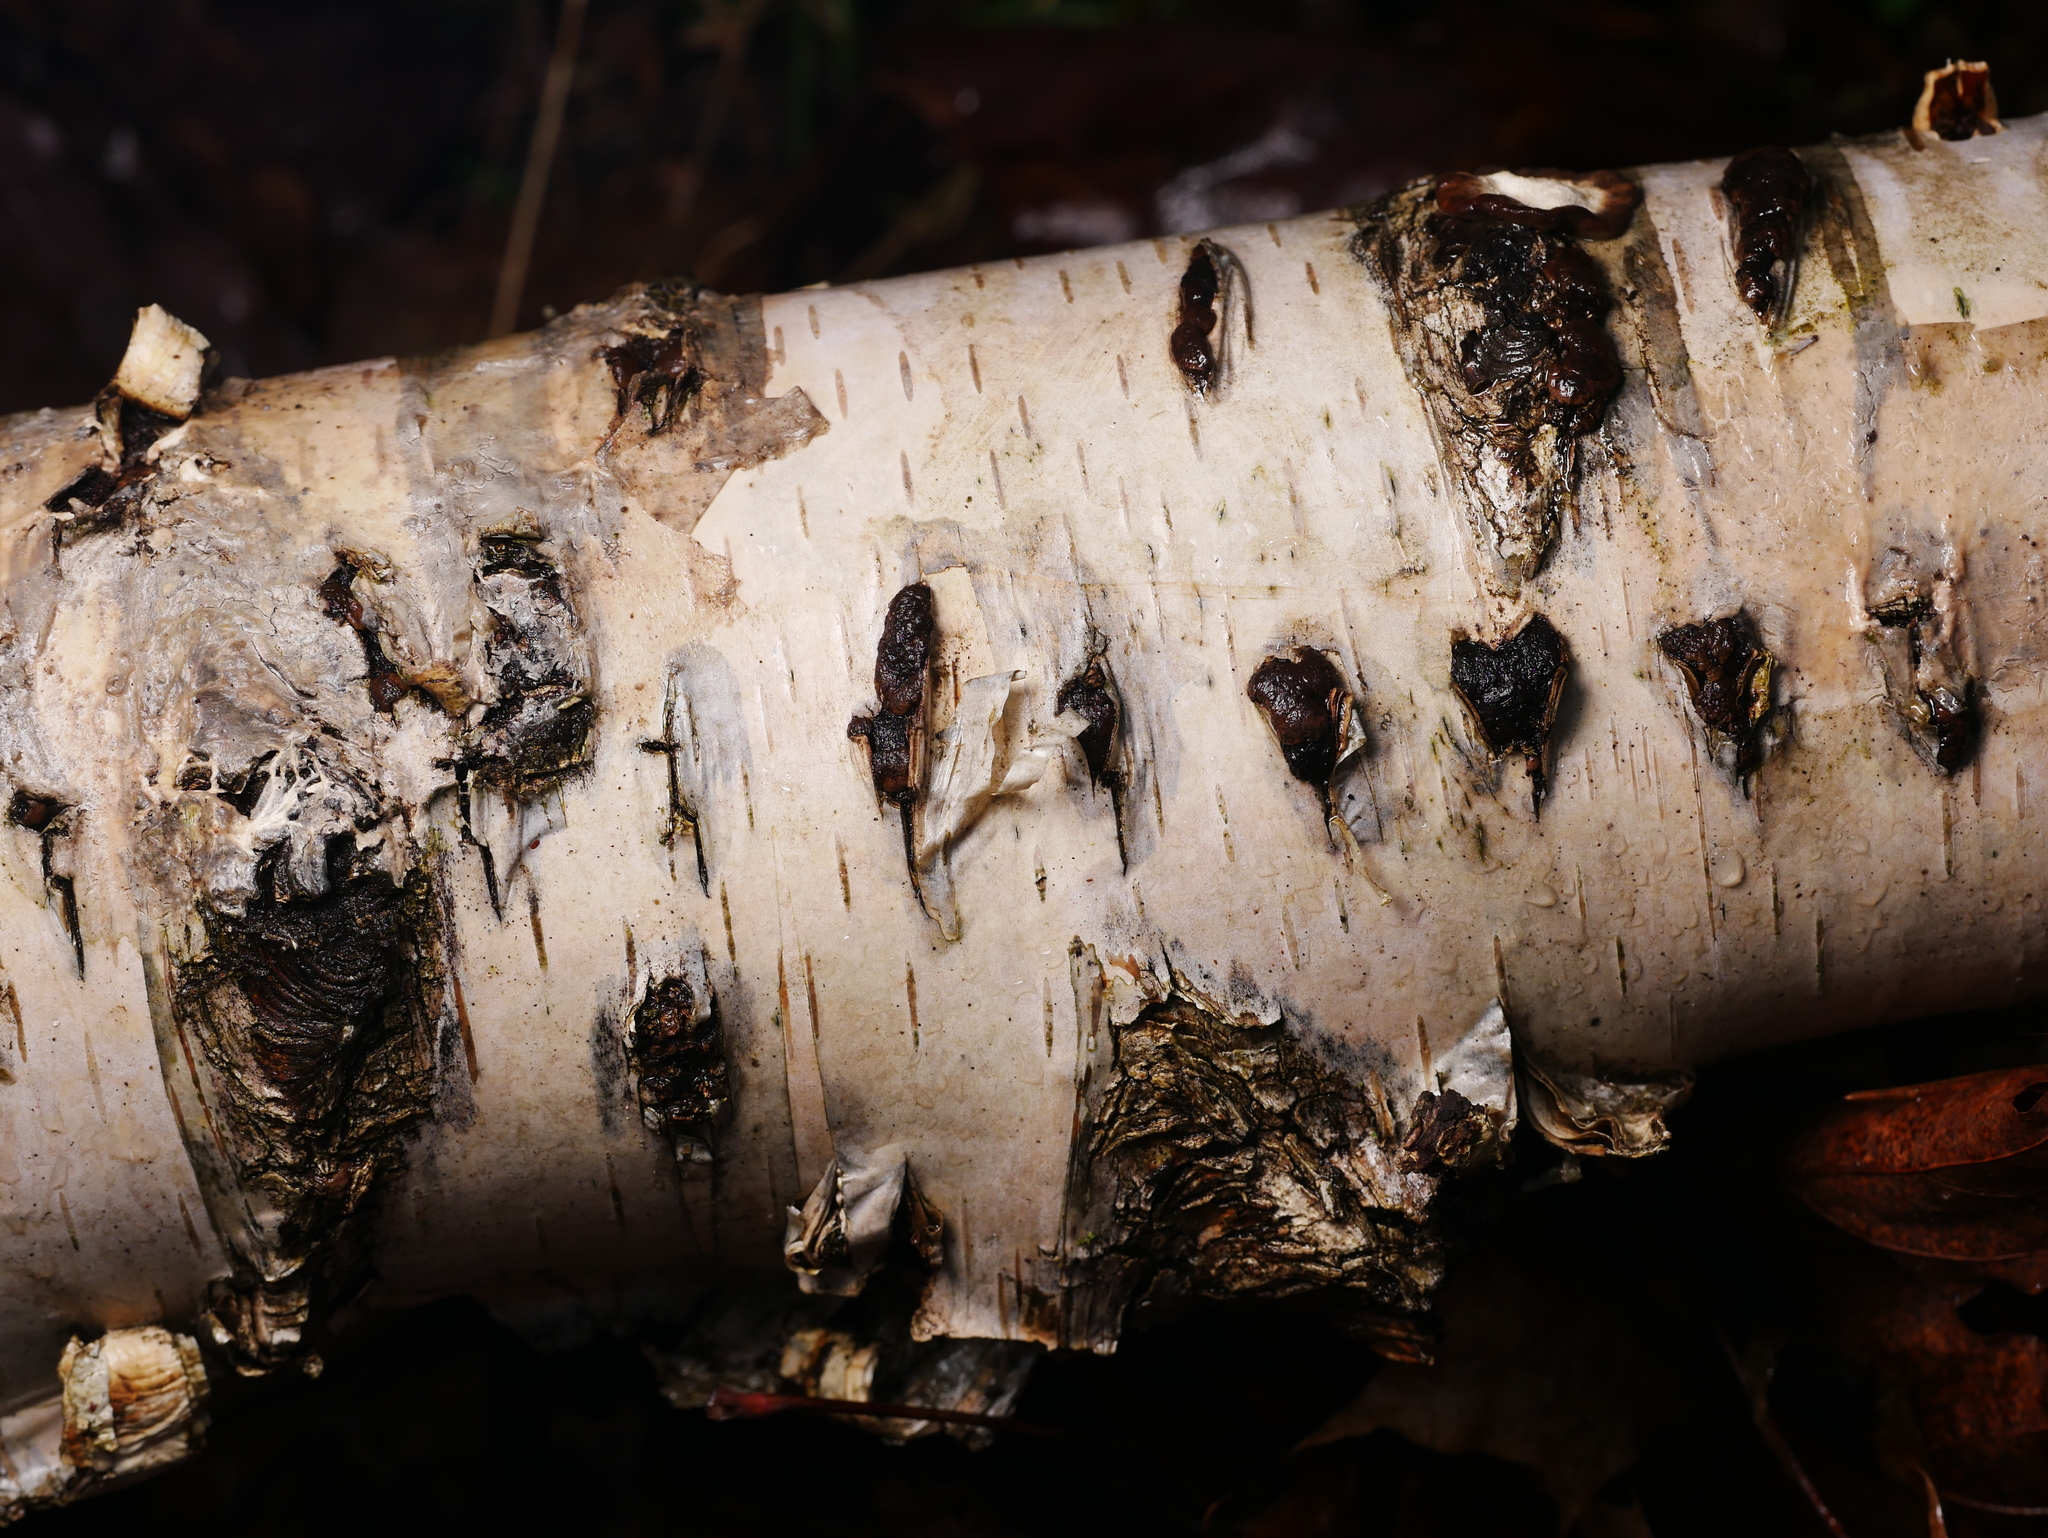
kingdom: Plantae
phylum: Tracheophyta
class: Magnoliopsida
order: Fagales
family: Betulaceae
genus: Betula
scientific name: Betula pendula
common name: Silver birch
